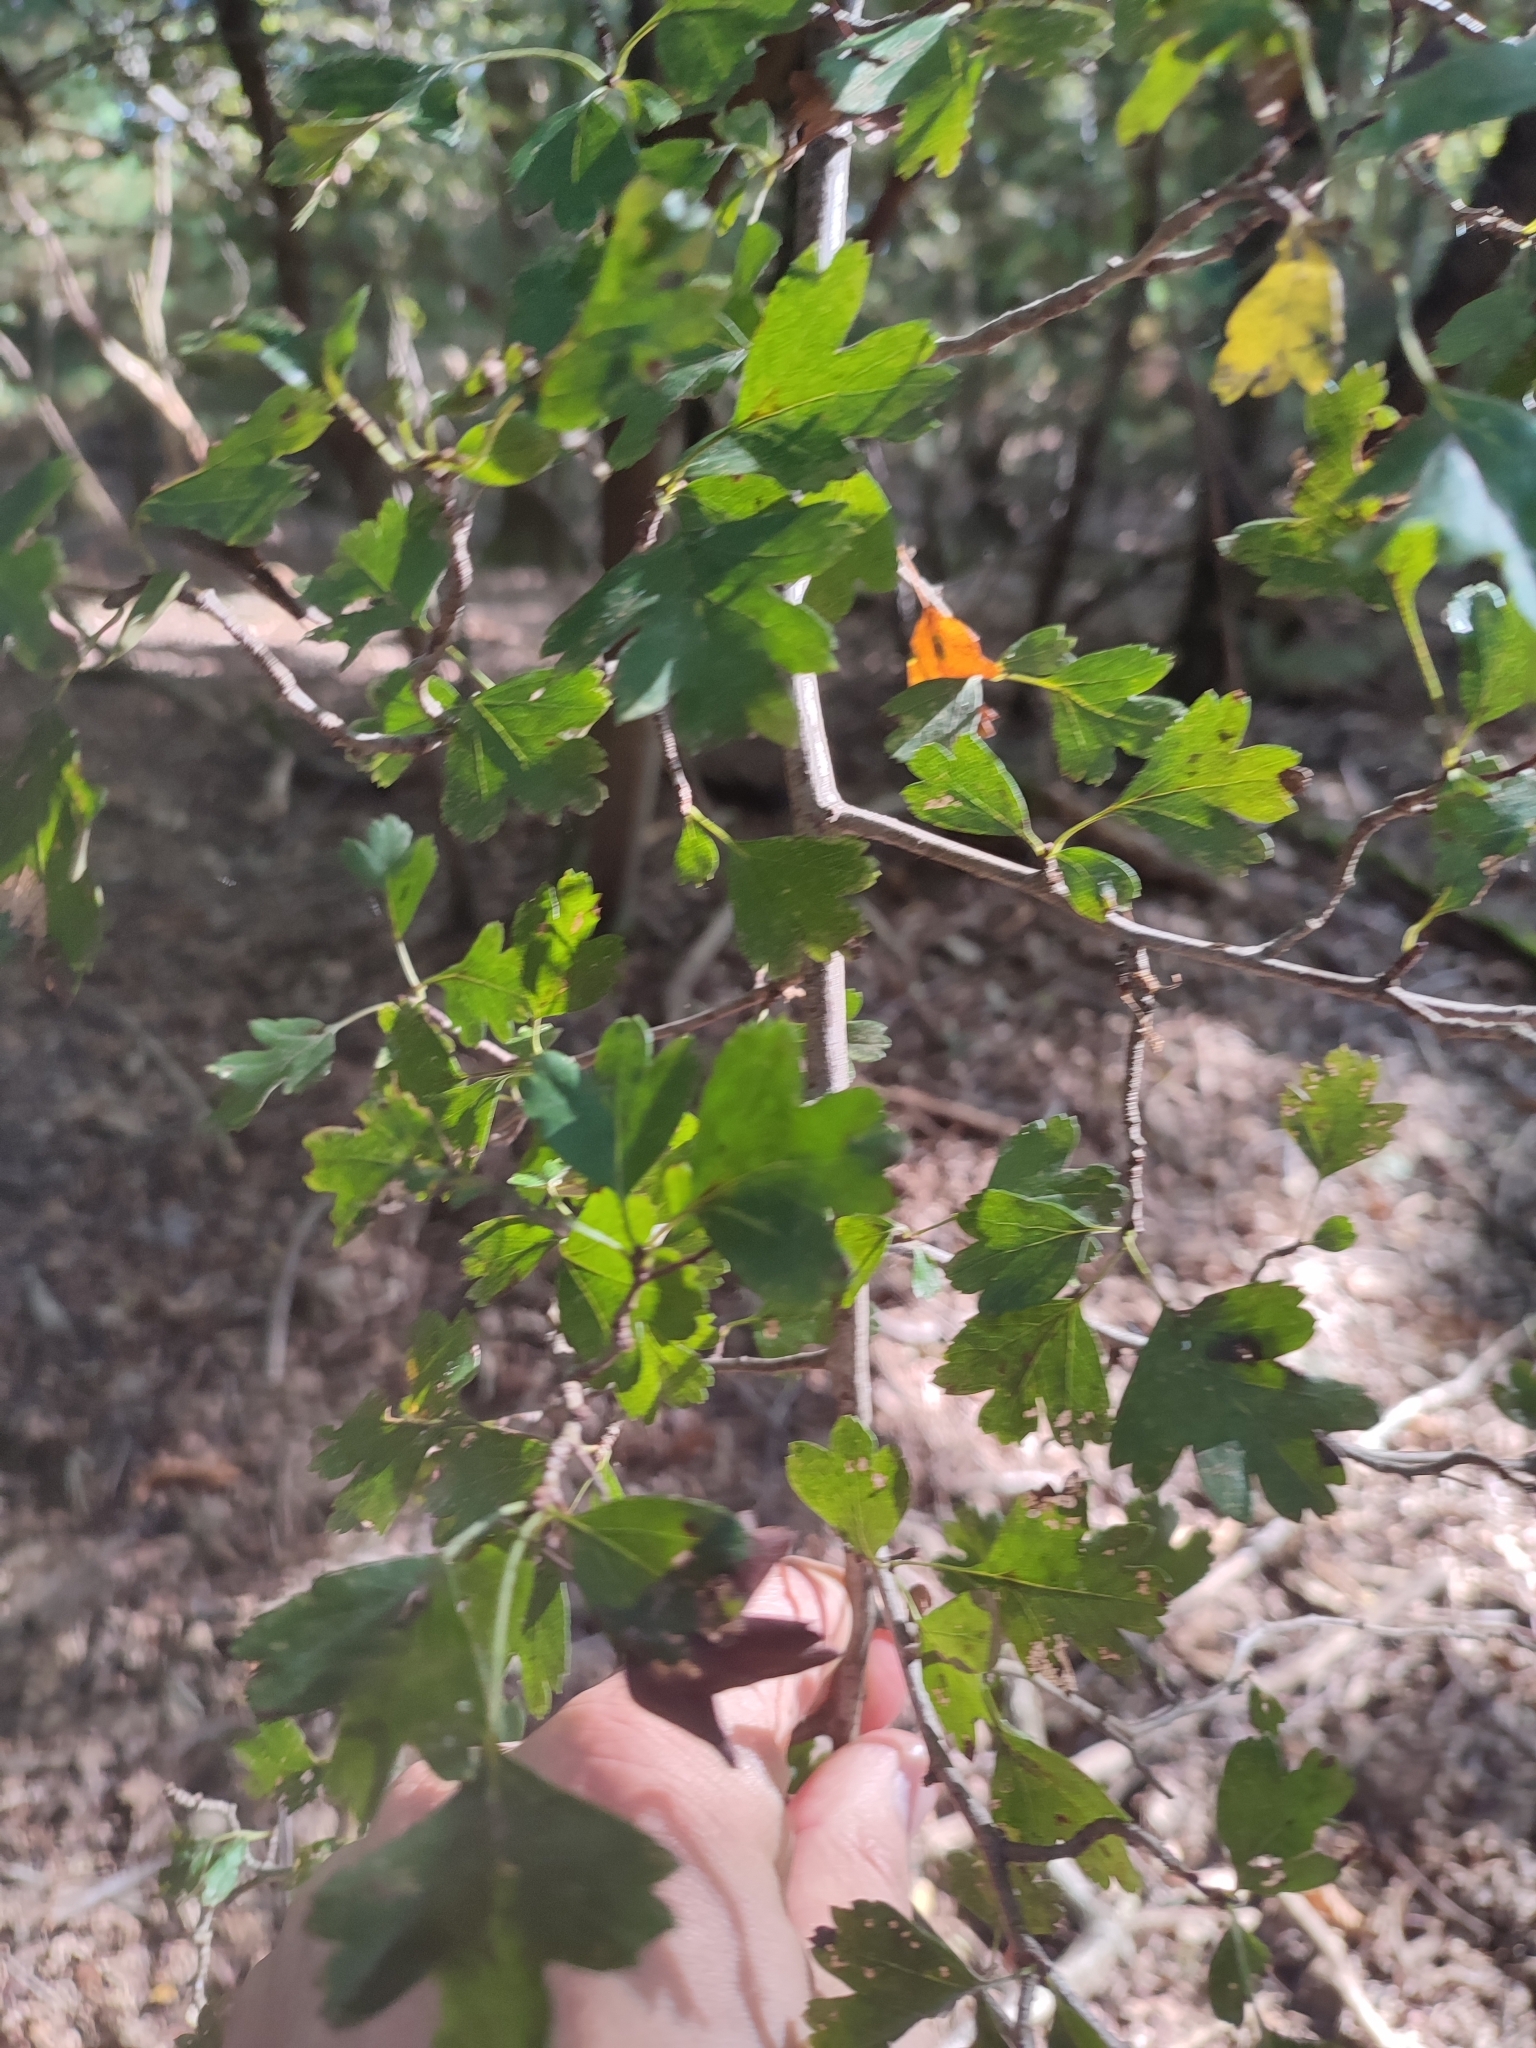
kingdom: Plantae
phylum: Tracheophyta
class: Magnoliopsida
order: Rosales
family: Rosaceae
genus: Crataegus
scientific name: Crataegus monogyna
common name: Hawthorn
